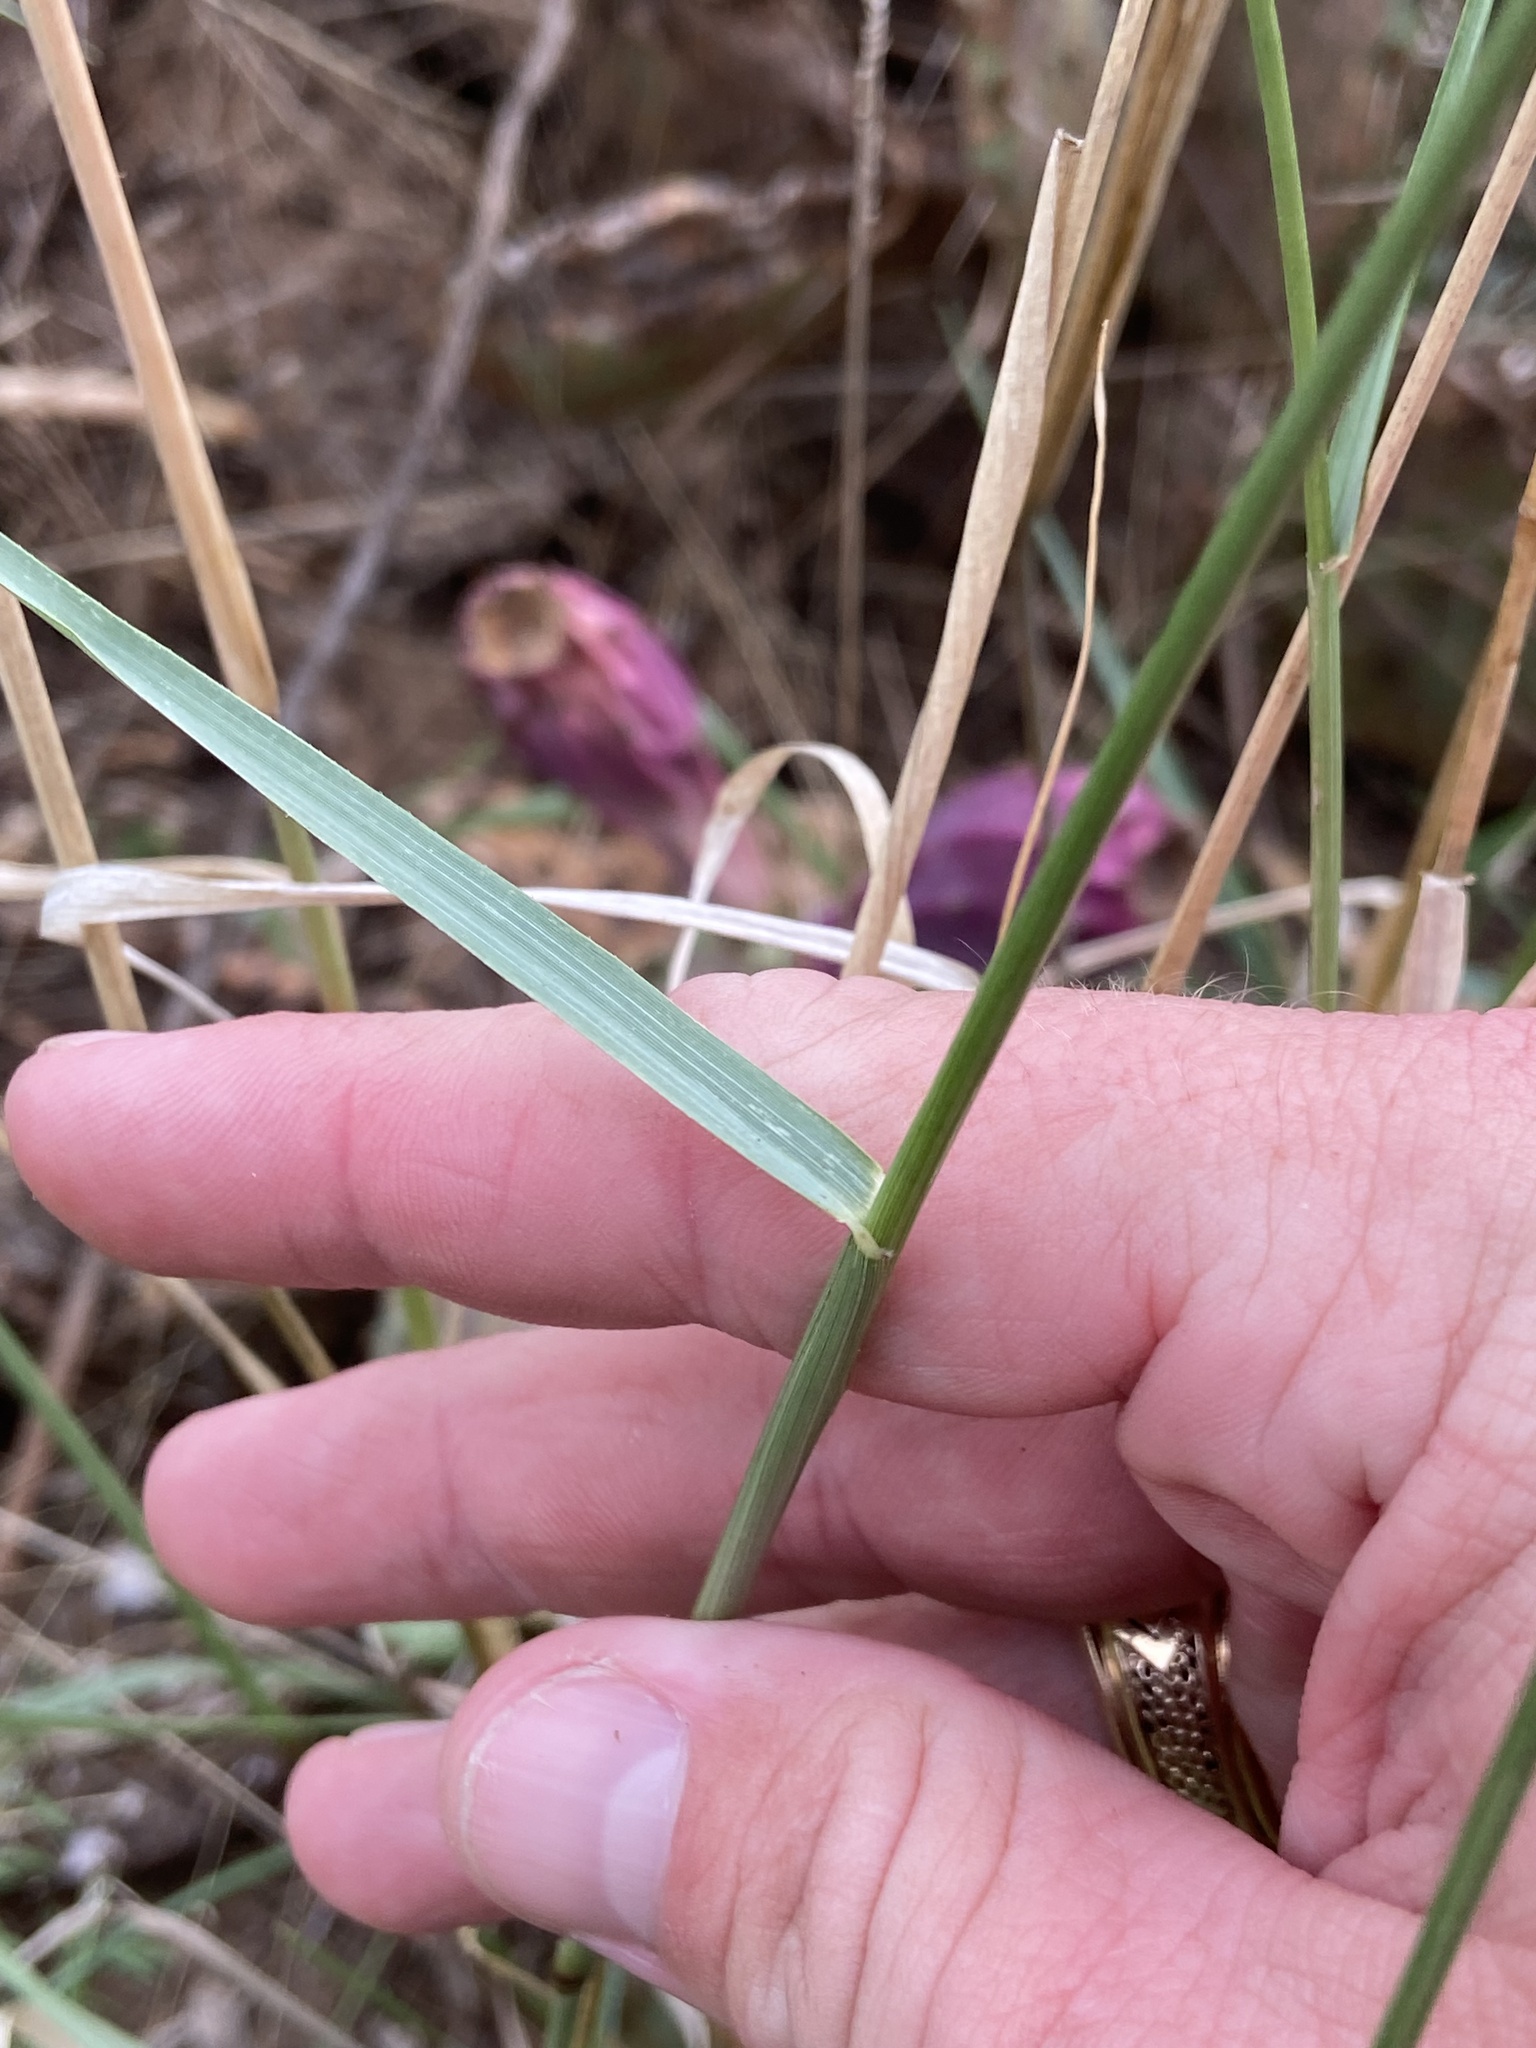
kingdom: Plantae
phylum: Tracheophyta
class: Liliopsida
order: Poales
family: Poaceae
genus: Tridens
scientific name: Tridens albescens
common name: White tridens
